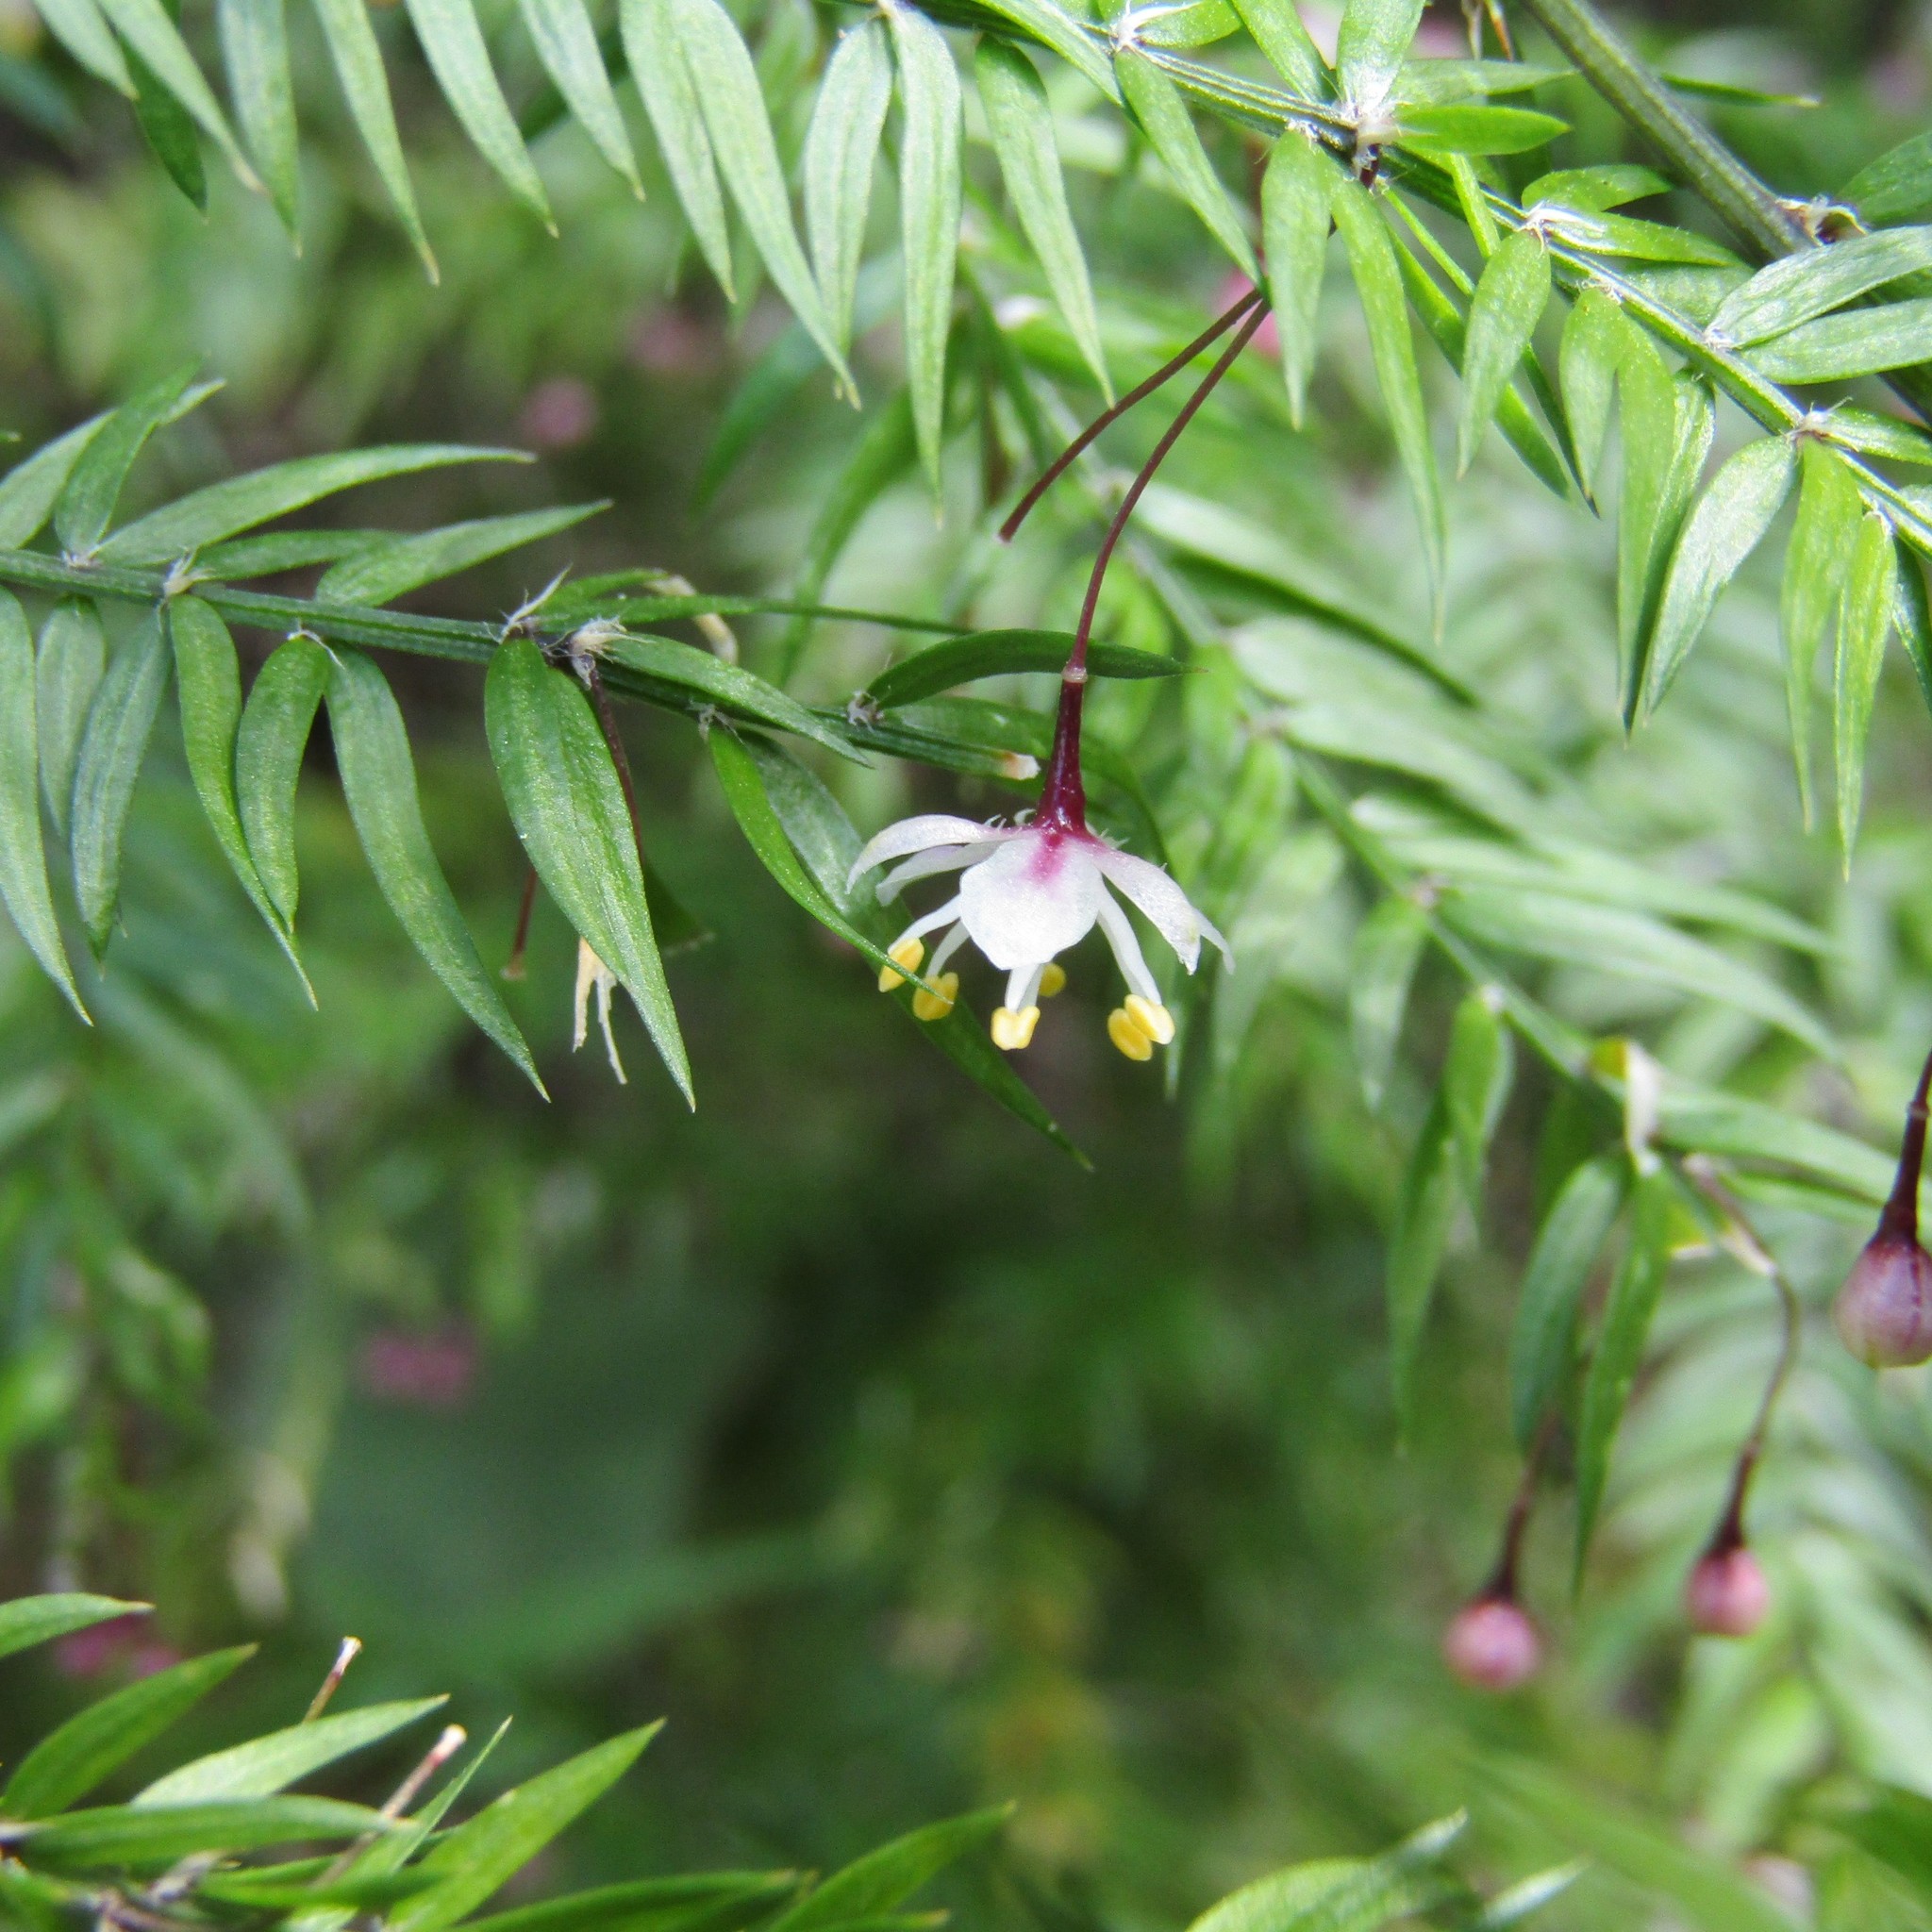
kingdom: Plantae
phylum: Tracheophyta
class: Liliopsida
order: Asparagales
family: Asparagaceae
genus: Asparagus
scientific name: Asparagus scandens
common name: Asparagus-fern
